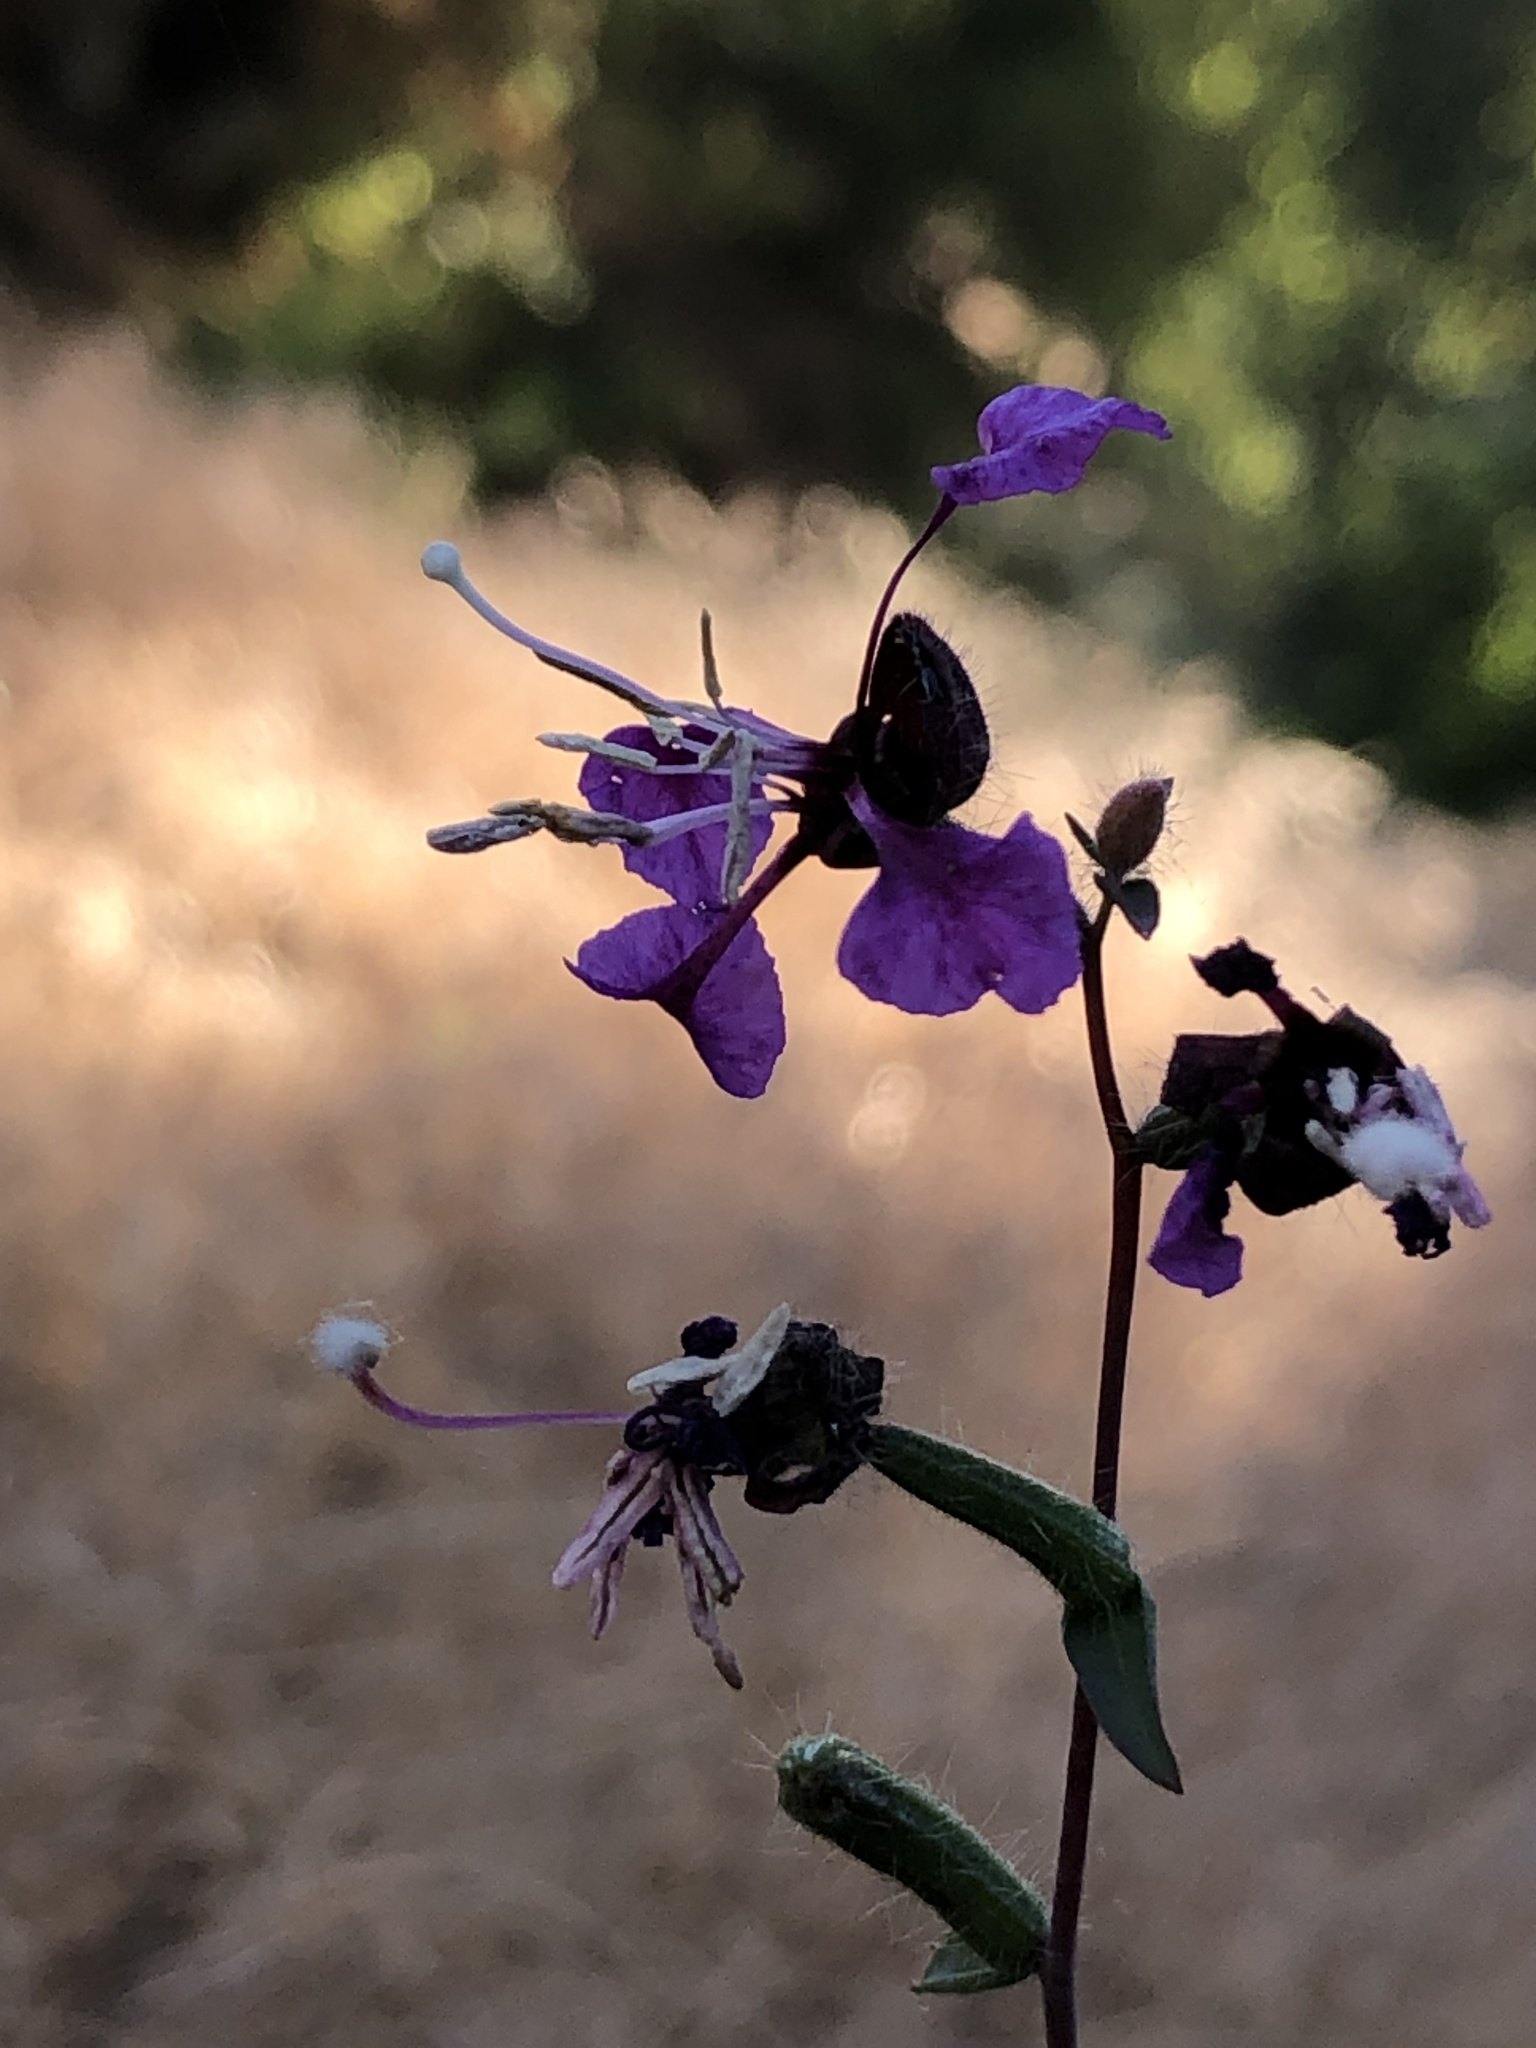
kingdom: Plantae
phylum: Tracheophyta
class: Magnoliopsida
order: Myrtales
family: Onagraceae
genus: Clarkia
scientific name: Clarkia unguiculata
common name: Clarkia
